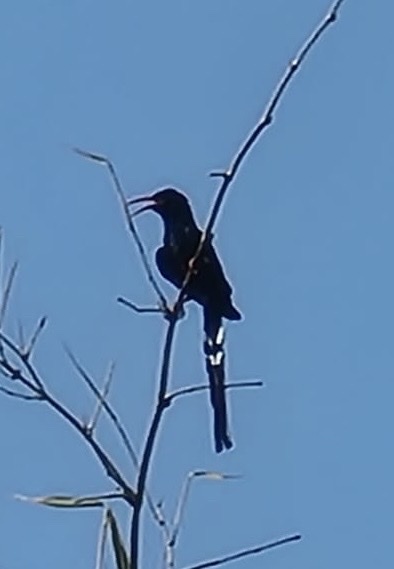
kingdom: Animalia
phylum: Chordata
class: Aves
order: Bucerotiformes
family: Phoeniculidae
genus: Phoeniculus
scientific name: Phoeniculus purpureus
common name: Green woodhoopoe
